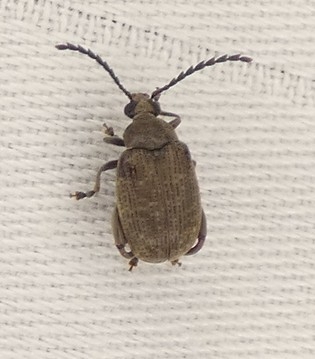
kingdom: Animalia
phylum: Arthropoda
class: Insecta
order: Coleoptera
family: Chrysomelidae
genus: Caryobruchus
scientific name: Caryobruchus gleditsiae
